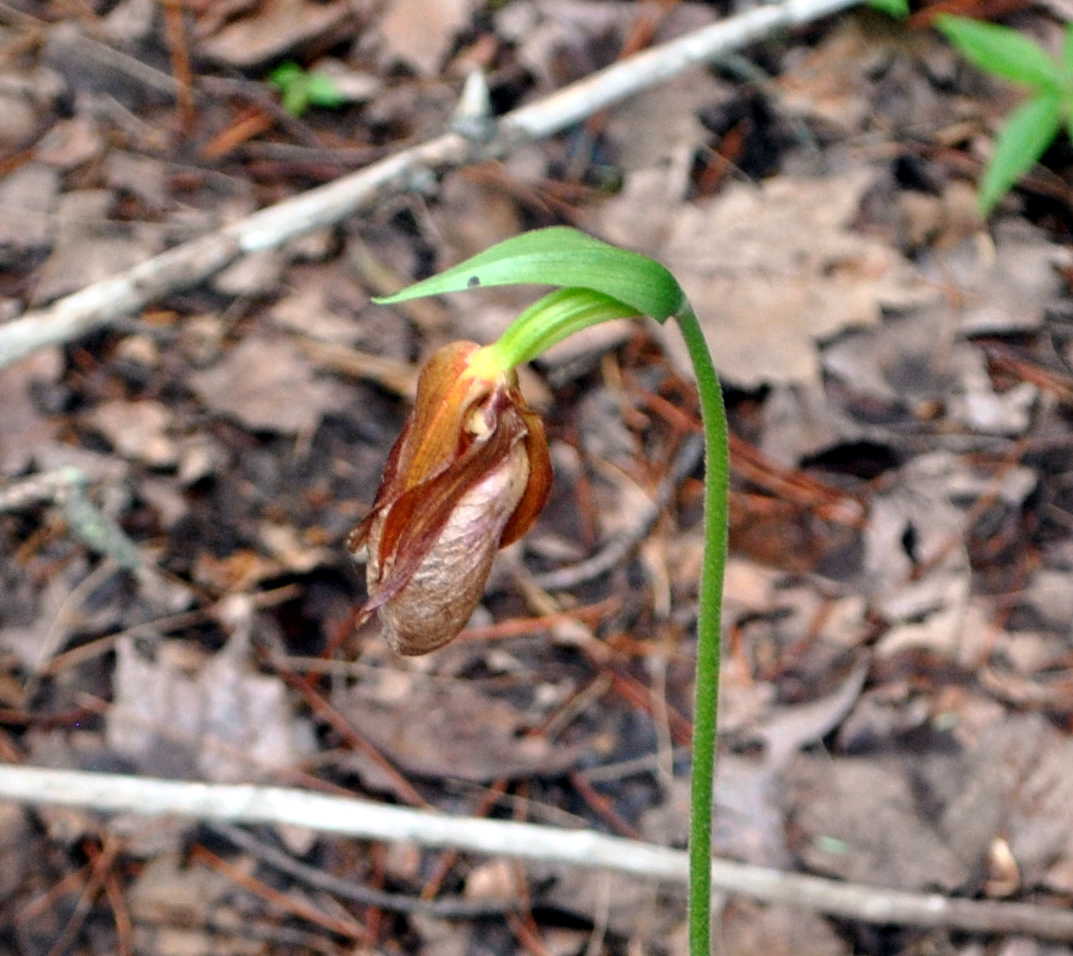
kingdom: Plantae
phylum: Tracheophyta
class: Liliopsida
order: Asparagales
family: Orchidaceae
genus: Cypripedium
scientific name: Cypripedium acaule
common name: Pink lady's-slipper
